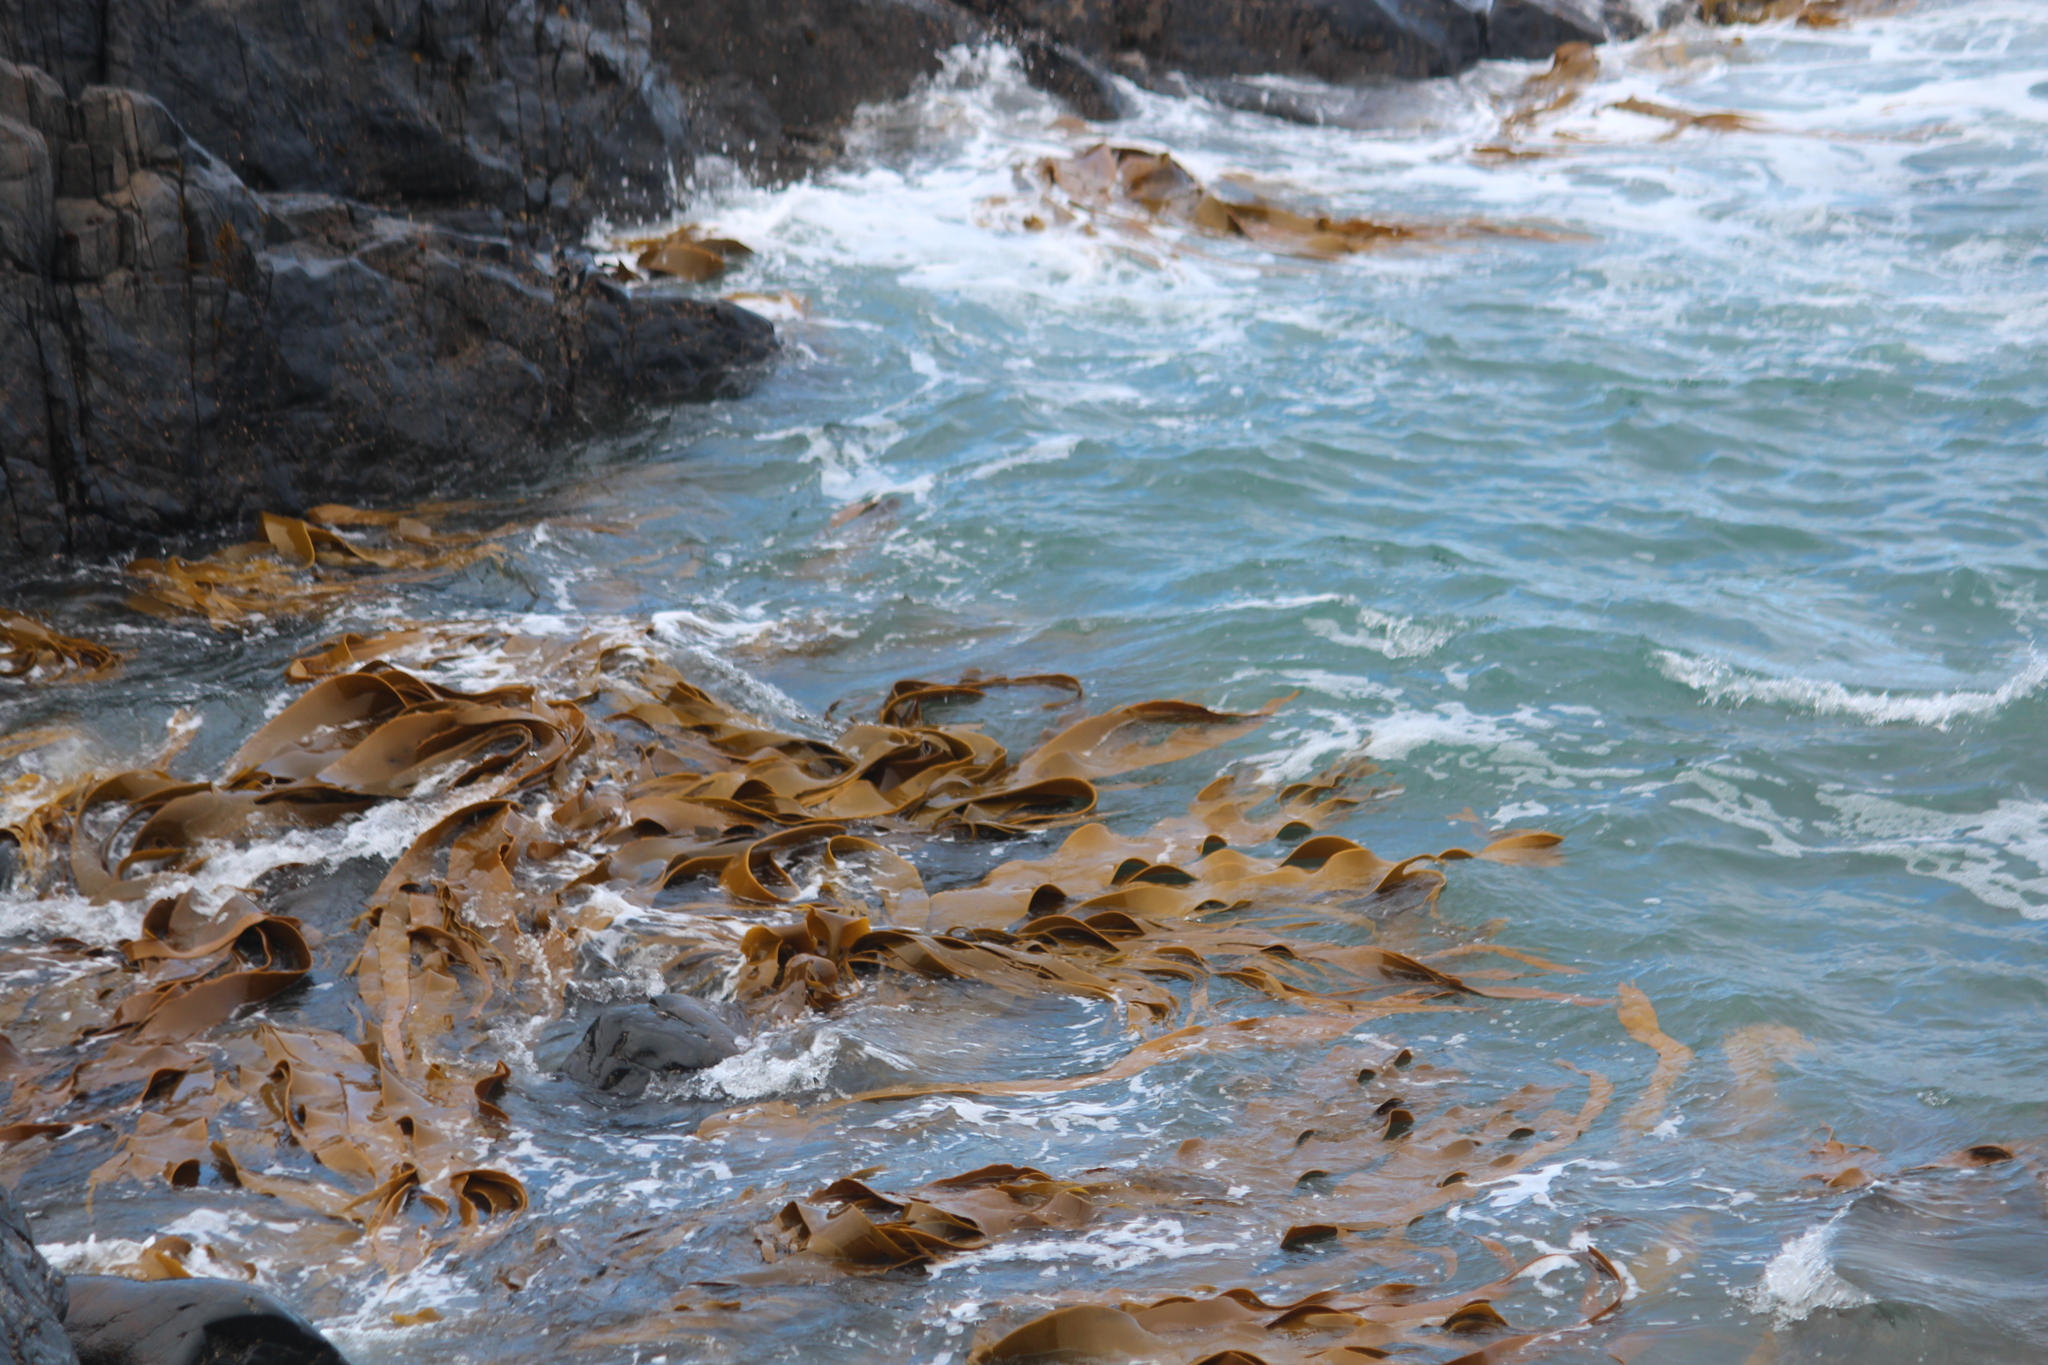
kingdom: Chromista
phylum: Ochrophyta
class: Phaeophyceae
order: Fucales
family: Durvillaeaceae
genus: Durvillaea
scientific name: Durvillaea antarctica
